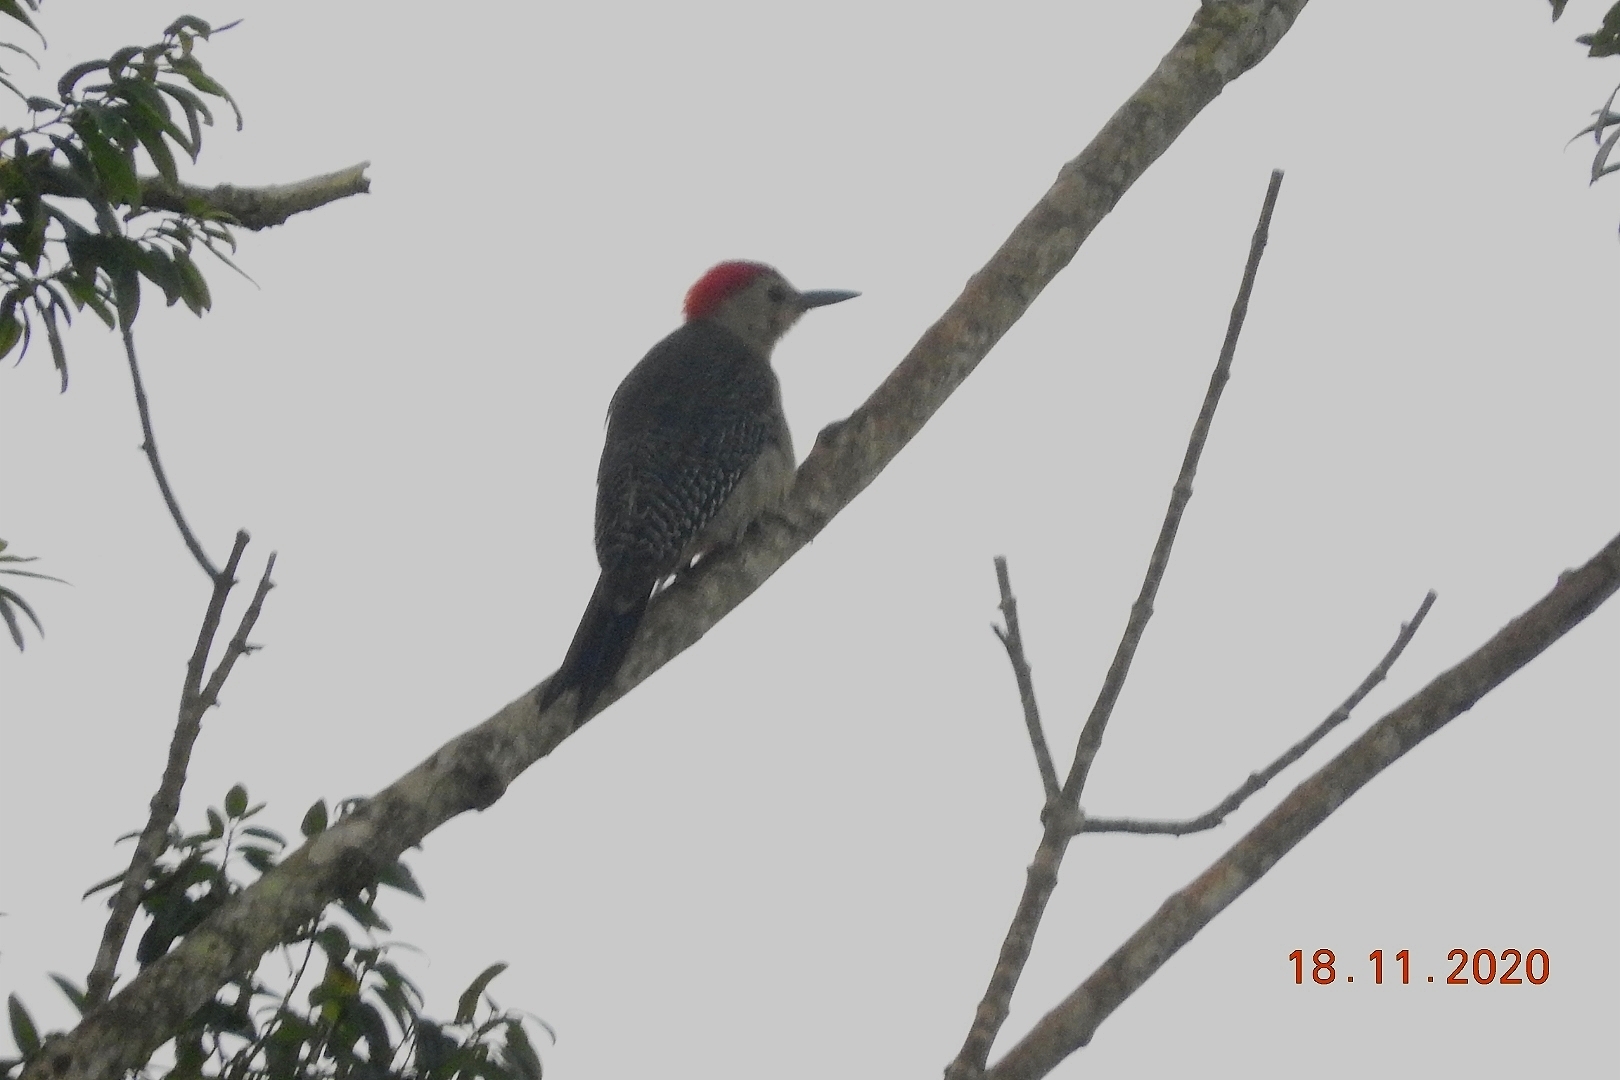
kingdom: Animalia
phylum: Chordata
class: Aves
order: Piciformes
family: Picidae
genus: Melanerpes
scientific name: Melanerpes aurifrons
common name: Golden-fronted woodpecker
